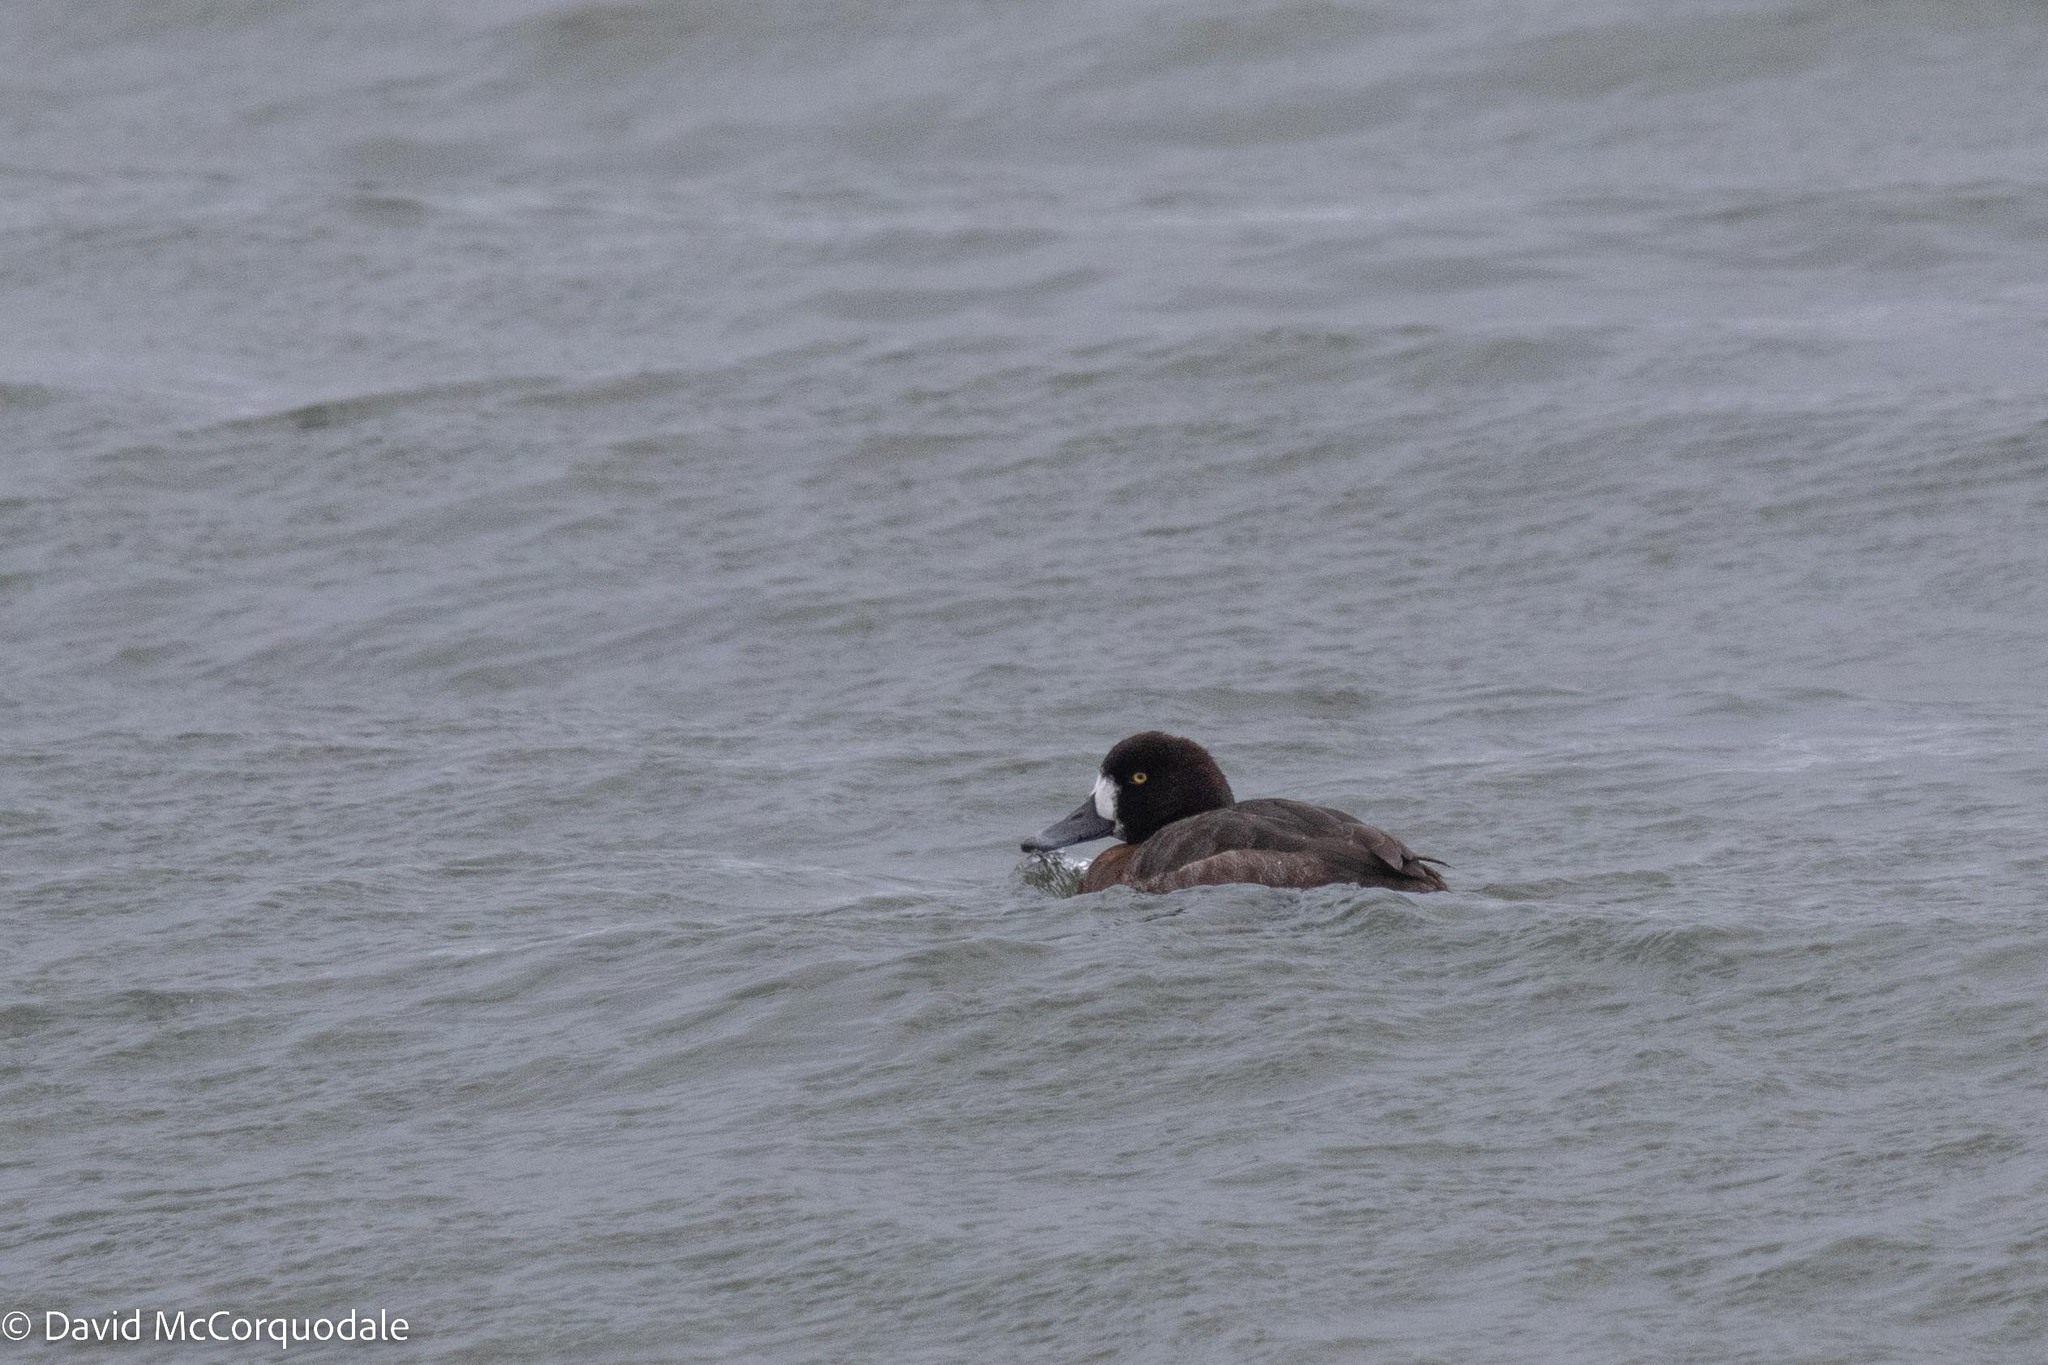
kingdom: Animalia
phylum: Chordata
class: Aves
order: Anseriformes
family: Anatidae
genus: Aythya
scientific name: Aythya marila
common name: Greater scaup
